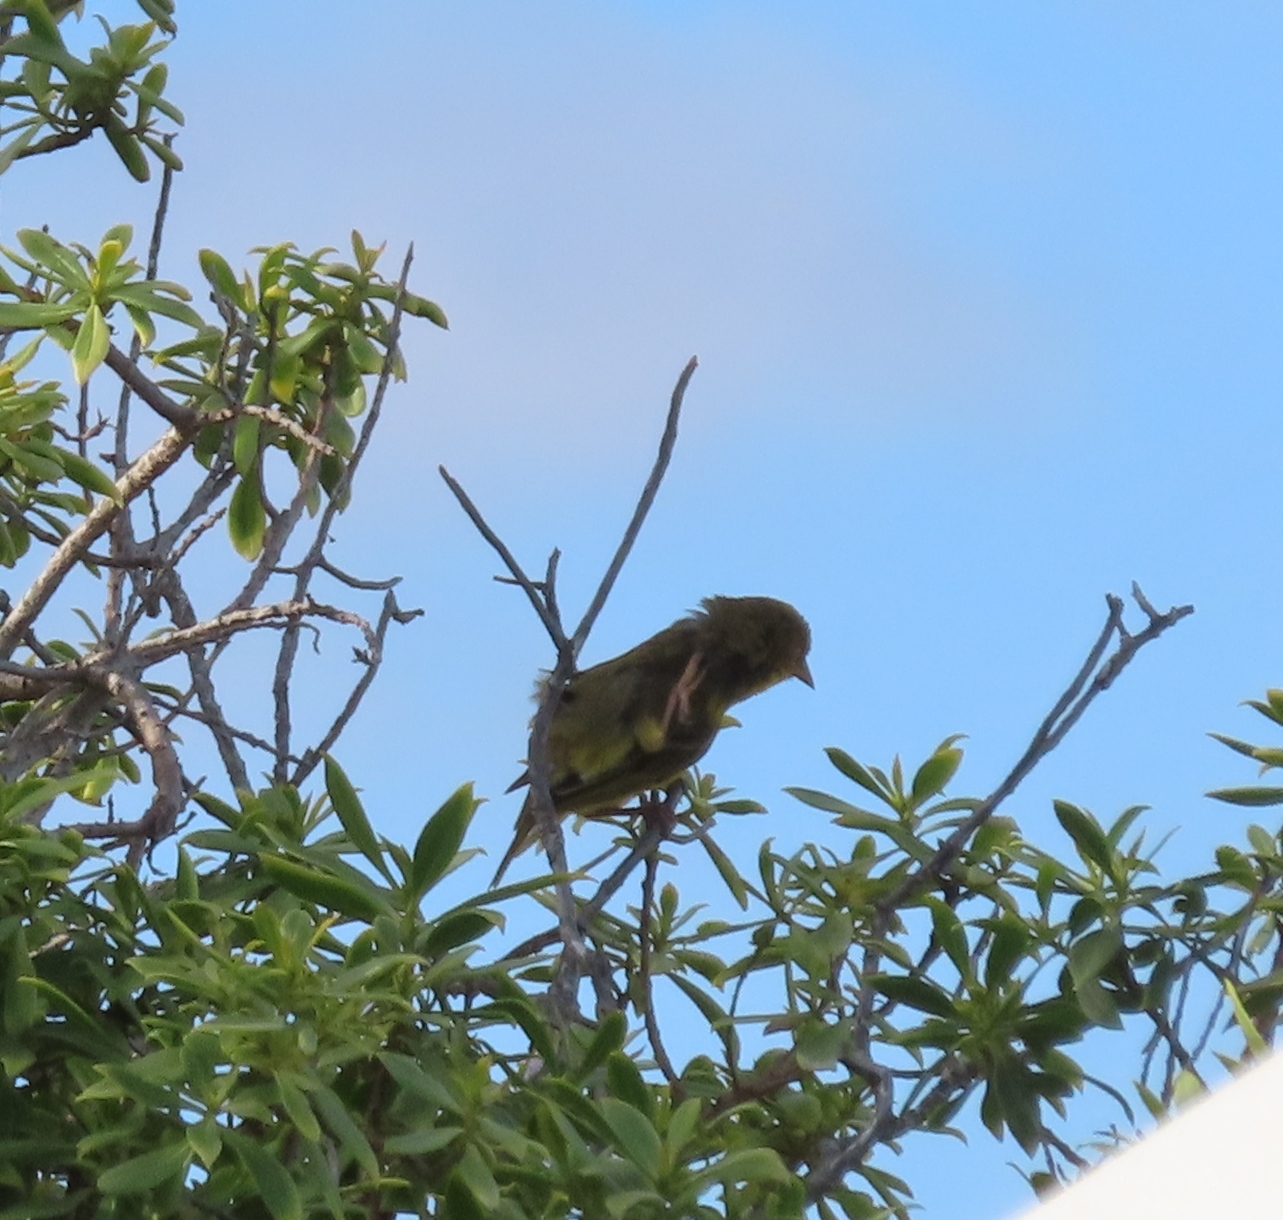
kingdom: Animalia
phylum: Chordata
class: Aves
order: Passeriformes
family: Ploceidae
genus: Ploceus
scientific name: Ploceus capensis
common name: Cape weaver
